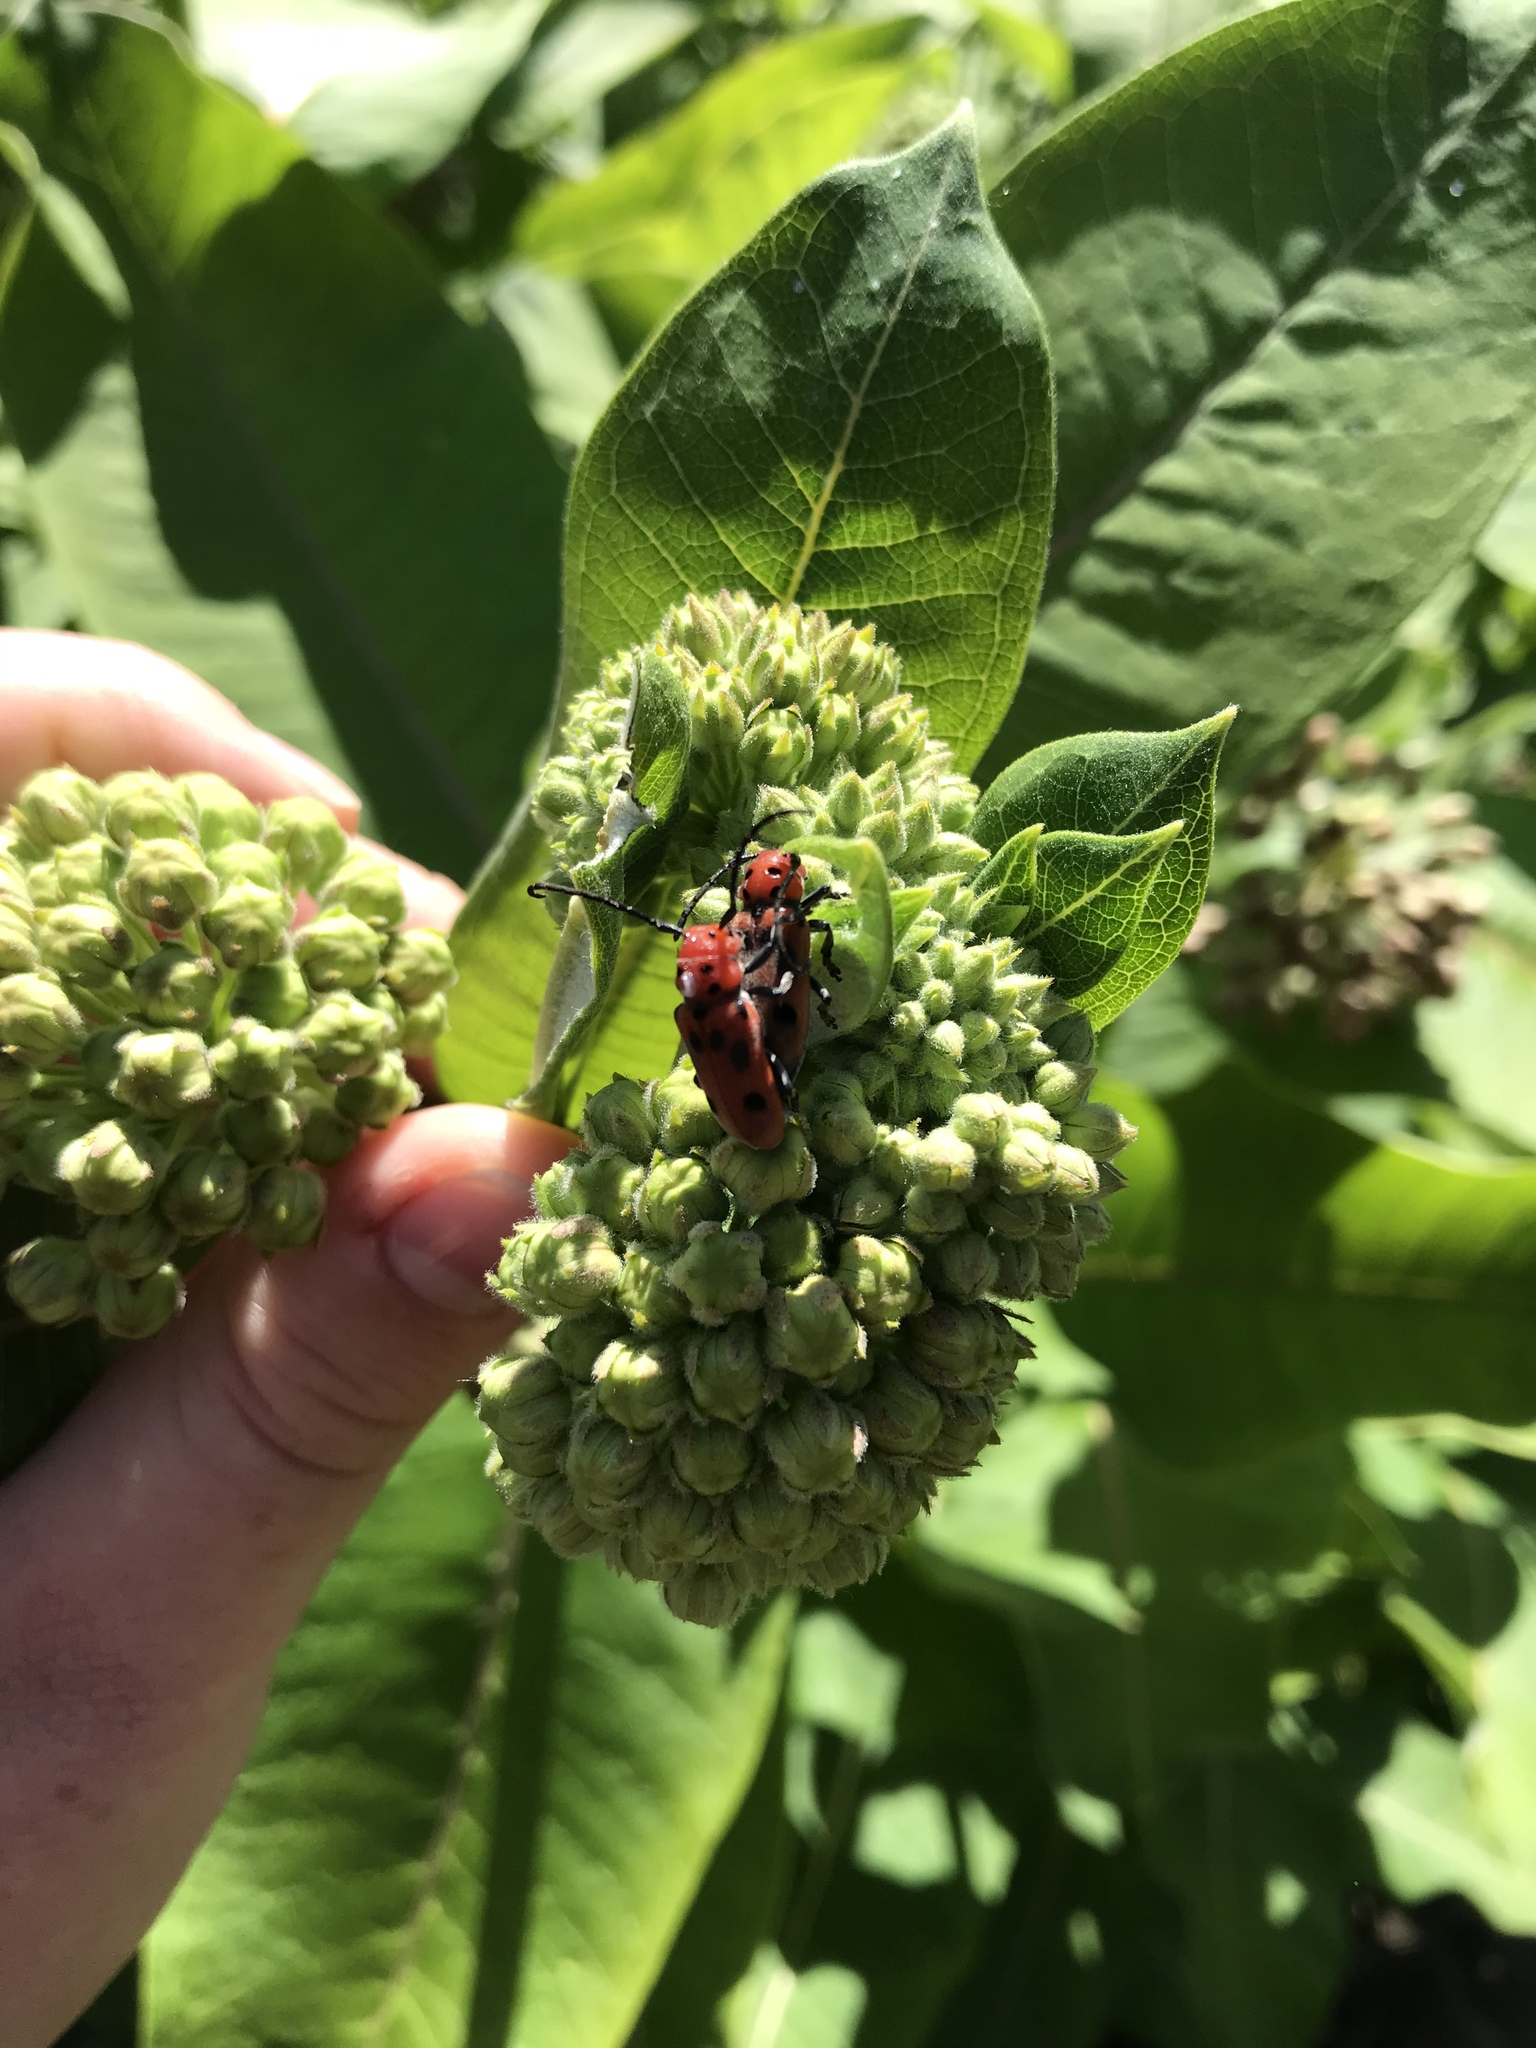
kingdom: Animalia
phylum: Arthropoda
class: Insecta
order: Coleoptera
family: Cerambycidae
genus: Tetraopes
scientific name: Tetraopes tetrophthalmus
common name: Red milkweed beetle
